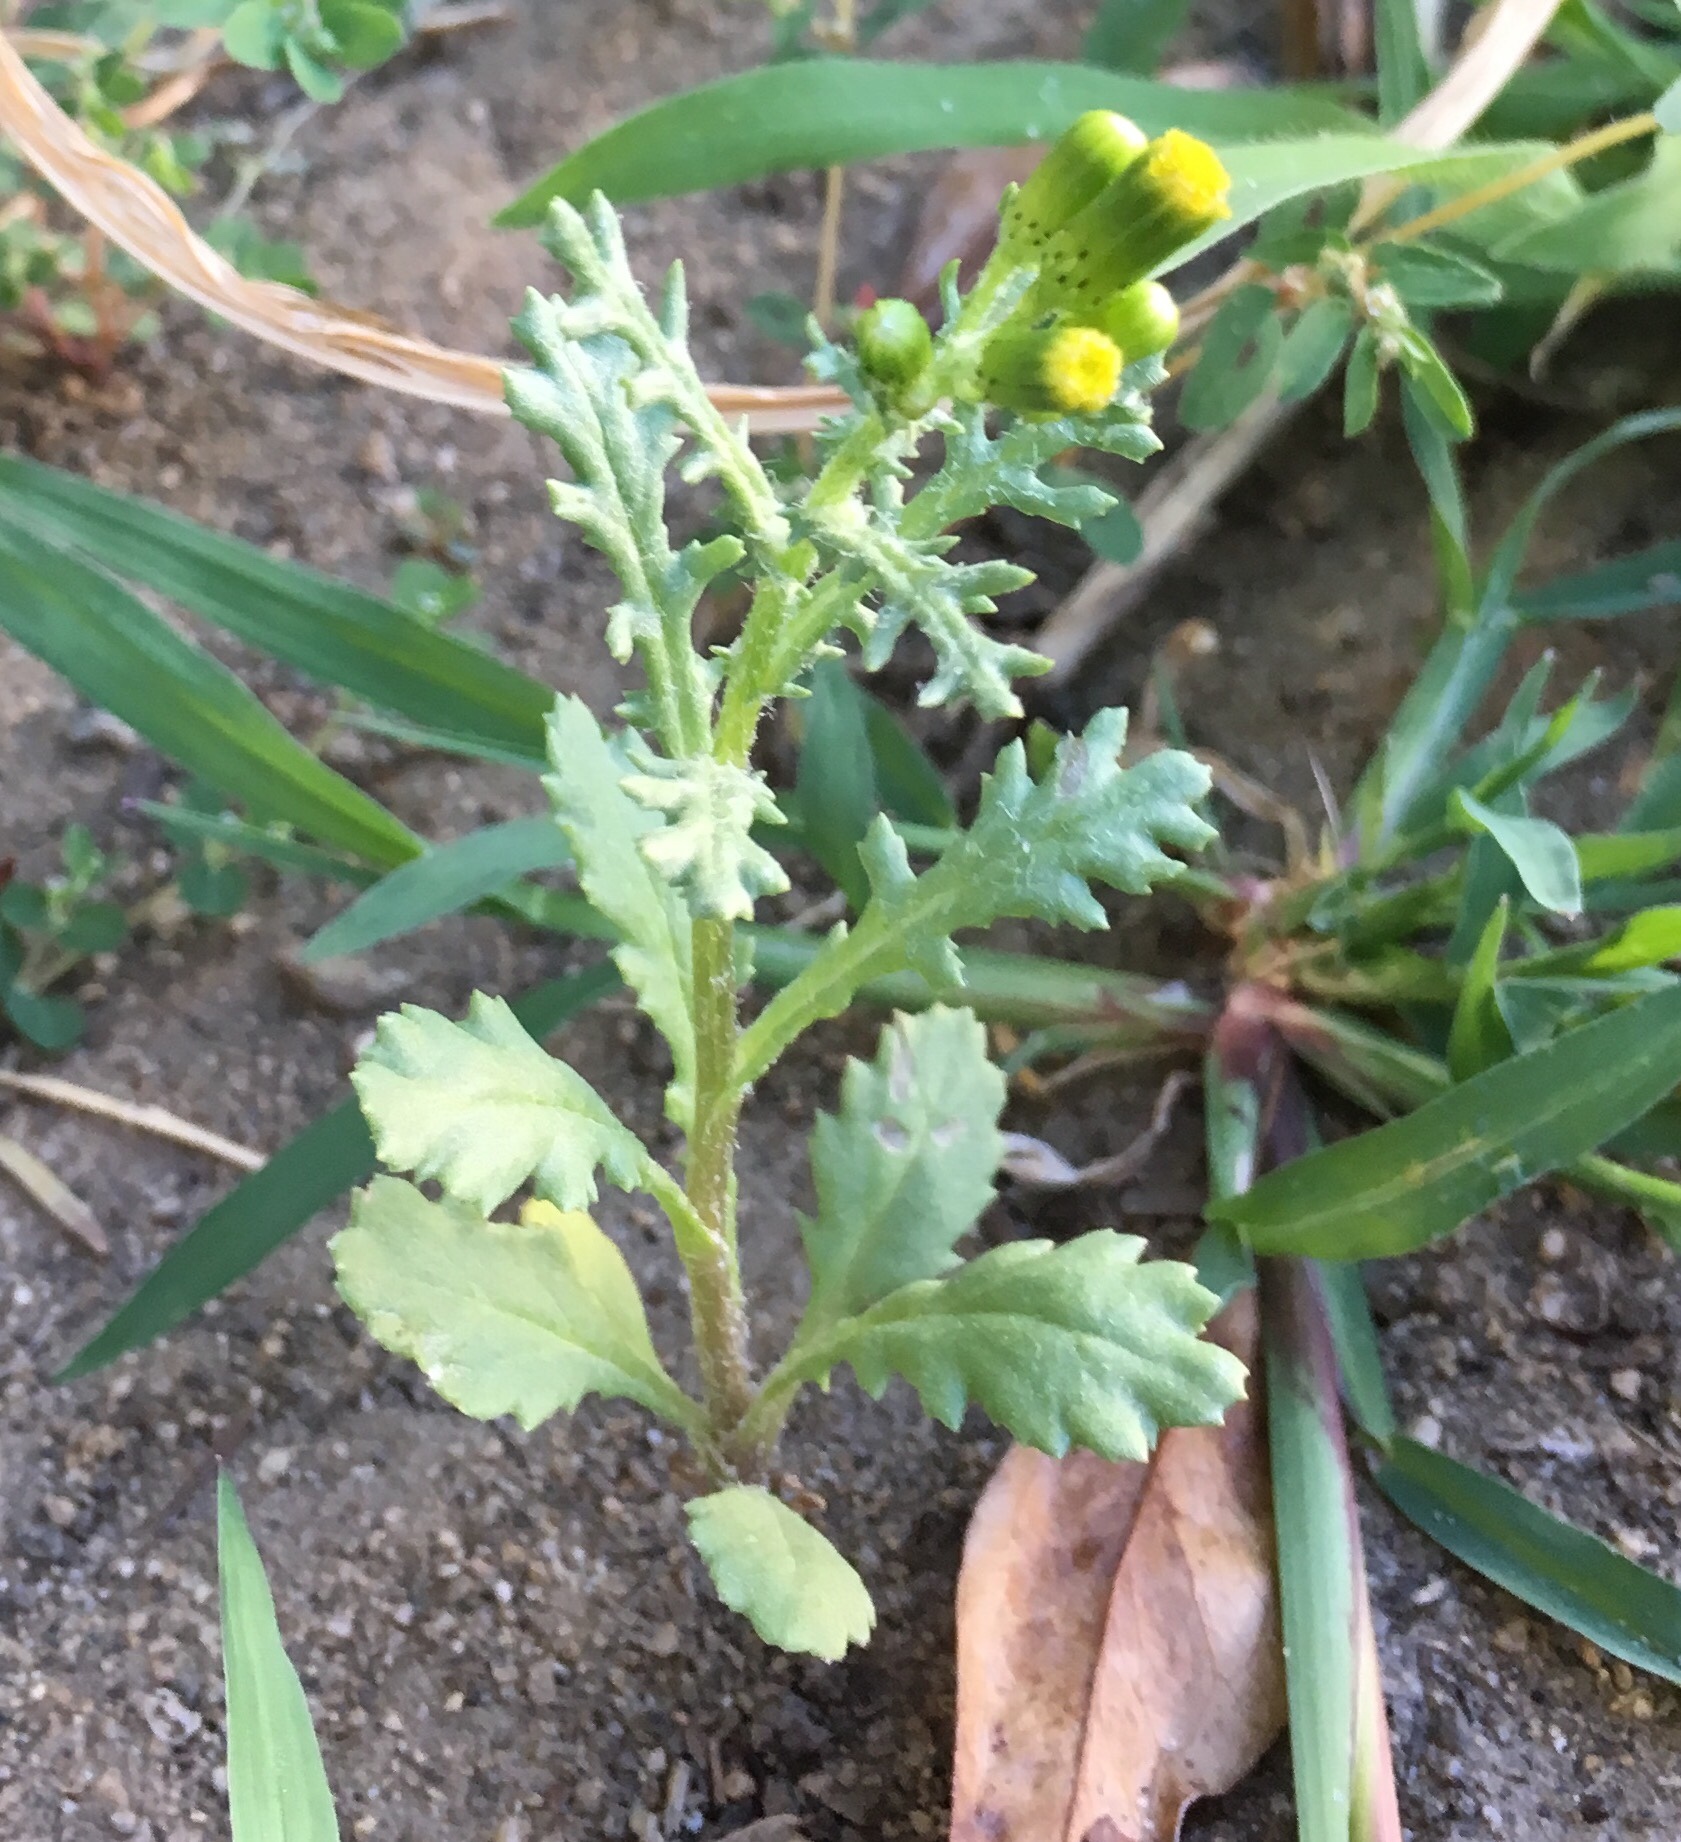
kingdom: Plantae
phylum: Tracheophyta
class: Magnoliopsida
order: Asterales
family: Asteraceae
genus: Senecio
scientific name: Senecio vulgaris
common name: Old-man-in-the-spring
